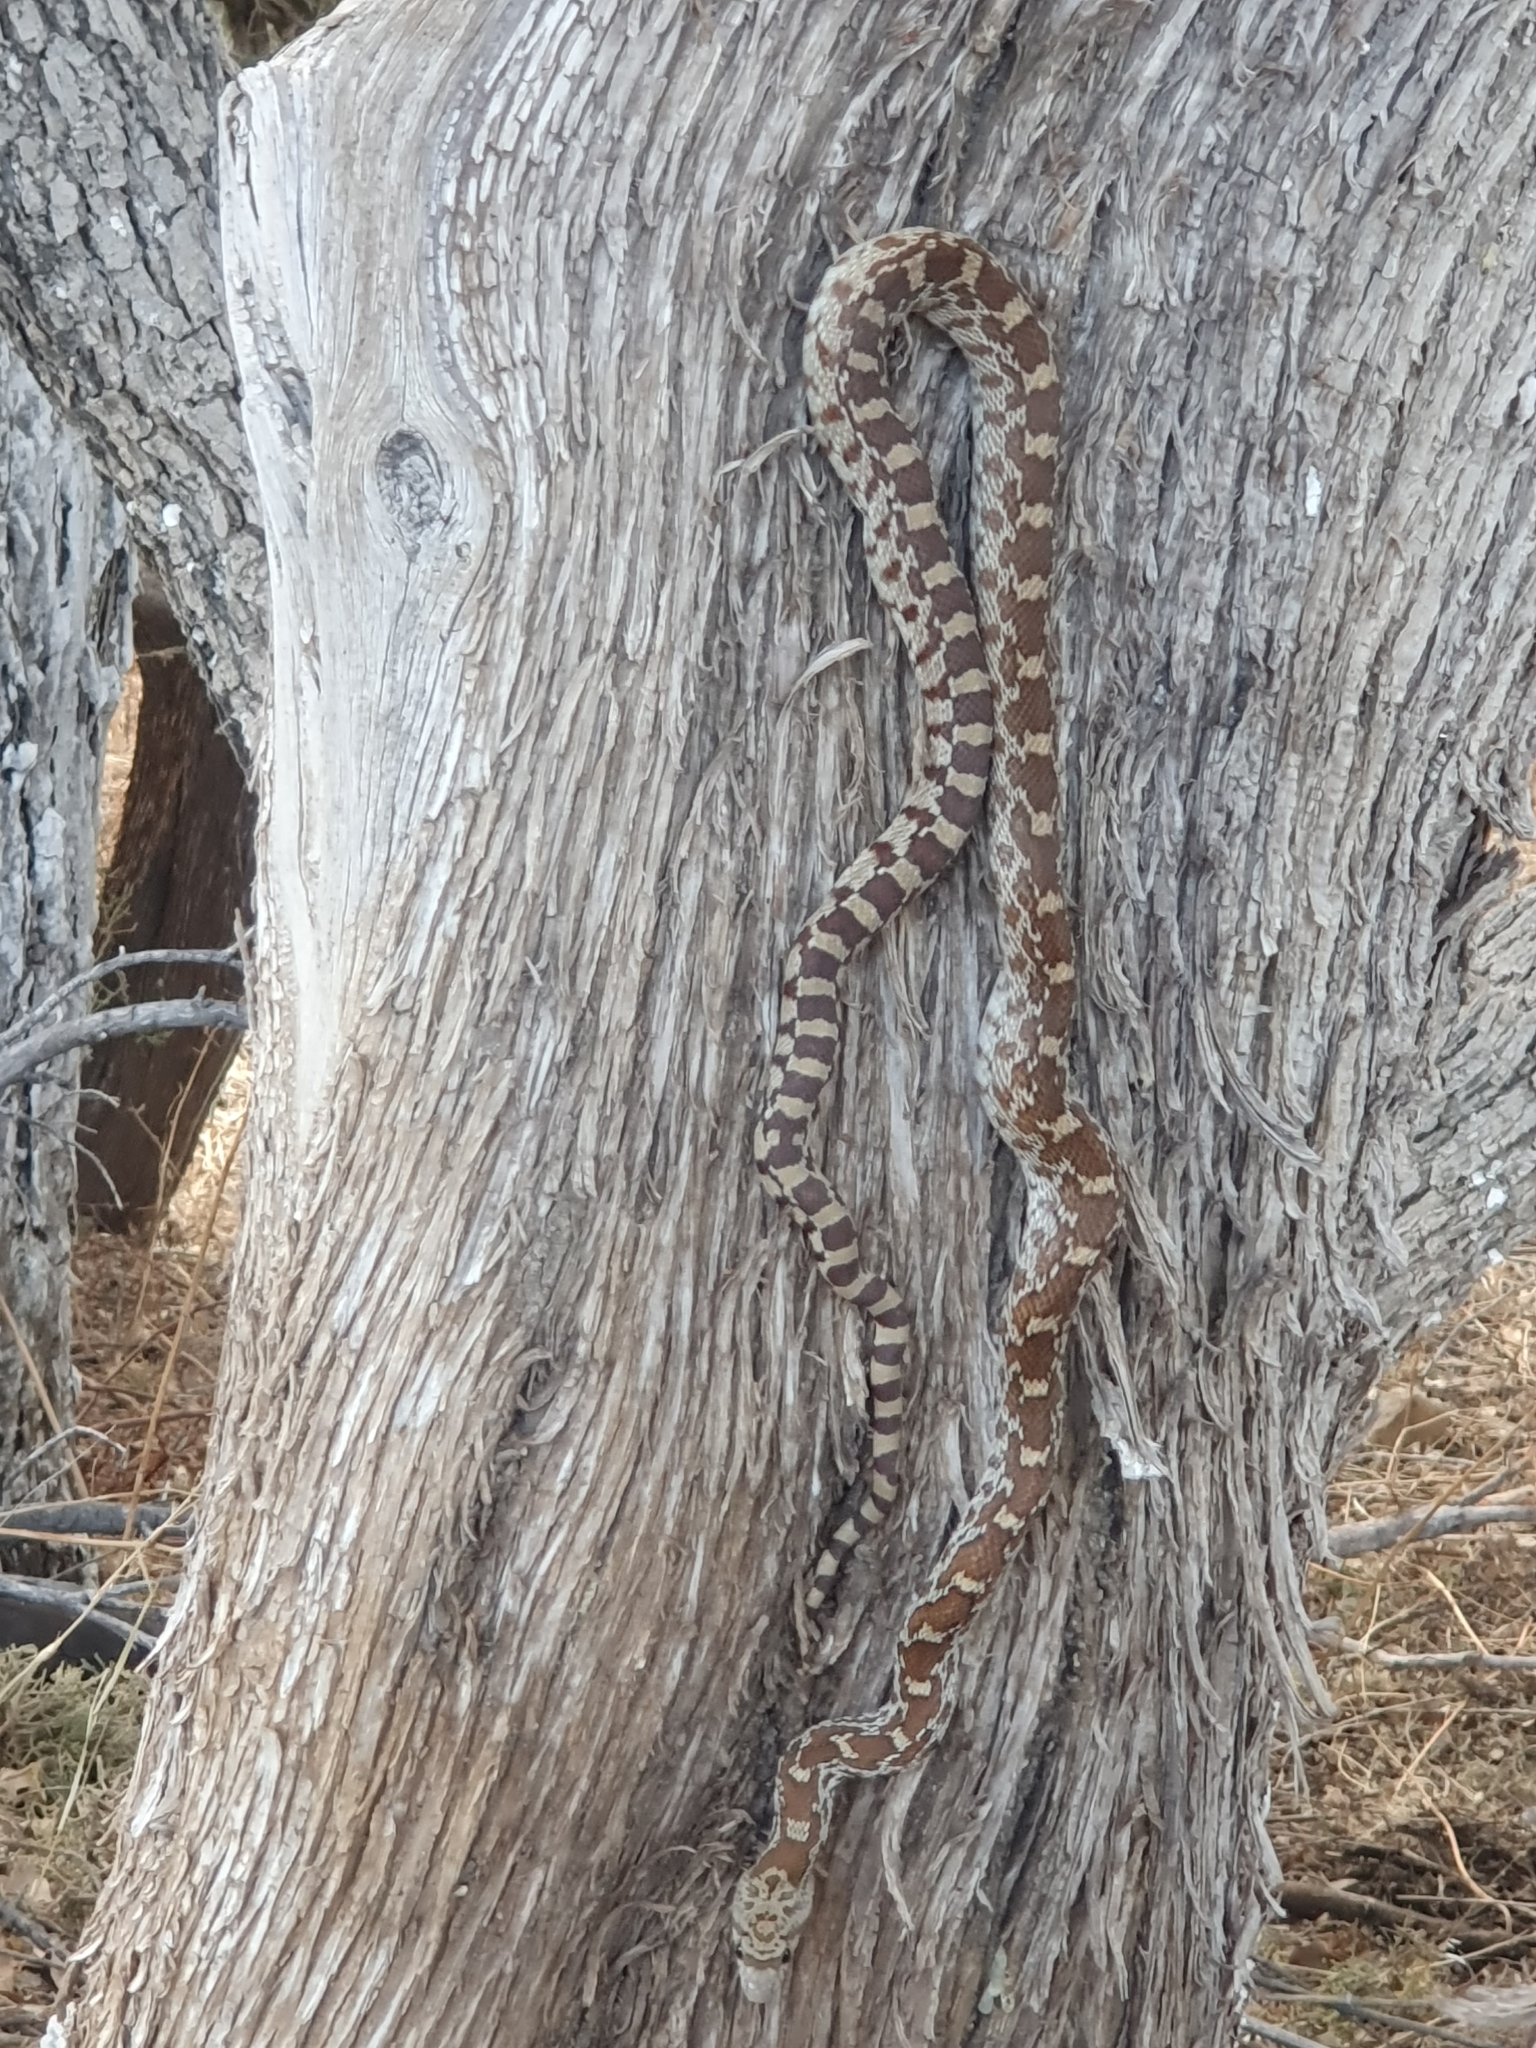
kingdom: Animalia
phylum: Chordata
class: Squamata
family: Colubridae
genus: Pituophis
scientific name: Pituophis catenifer
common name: Gopher snake
